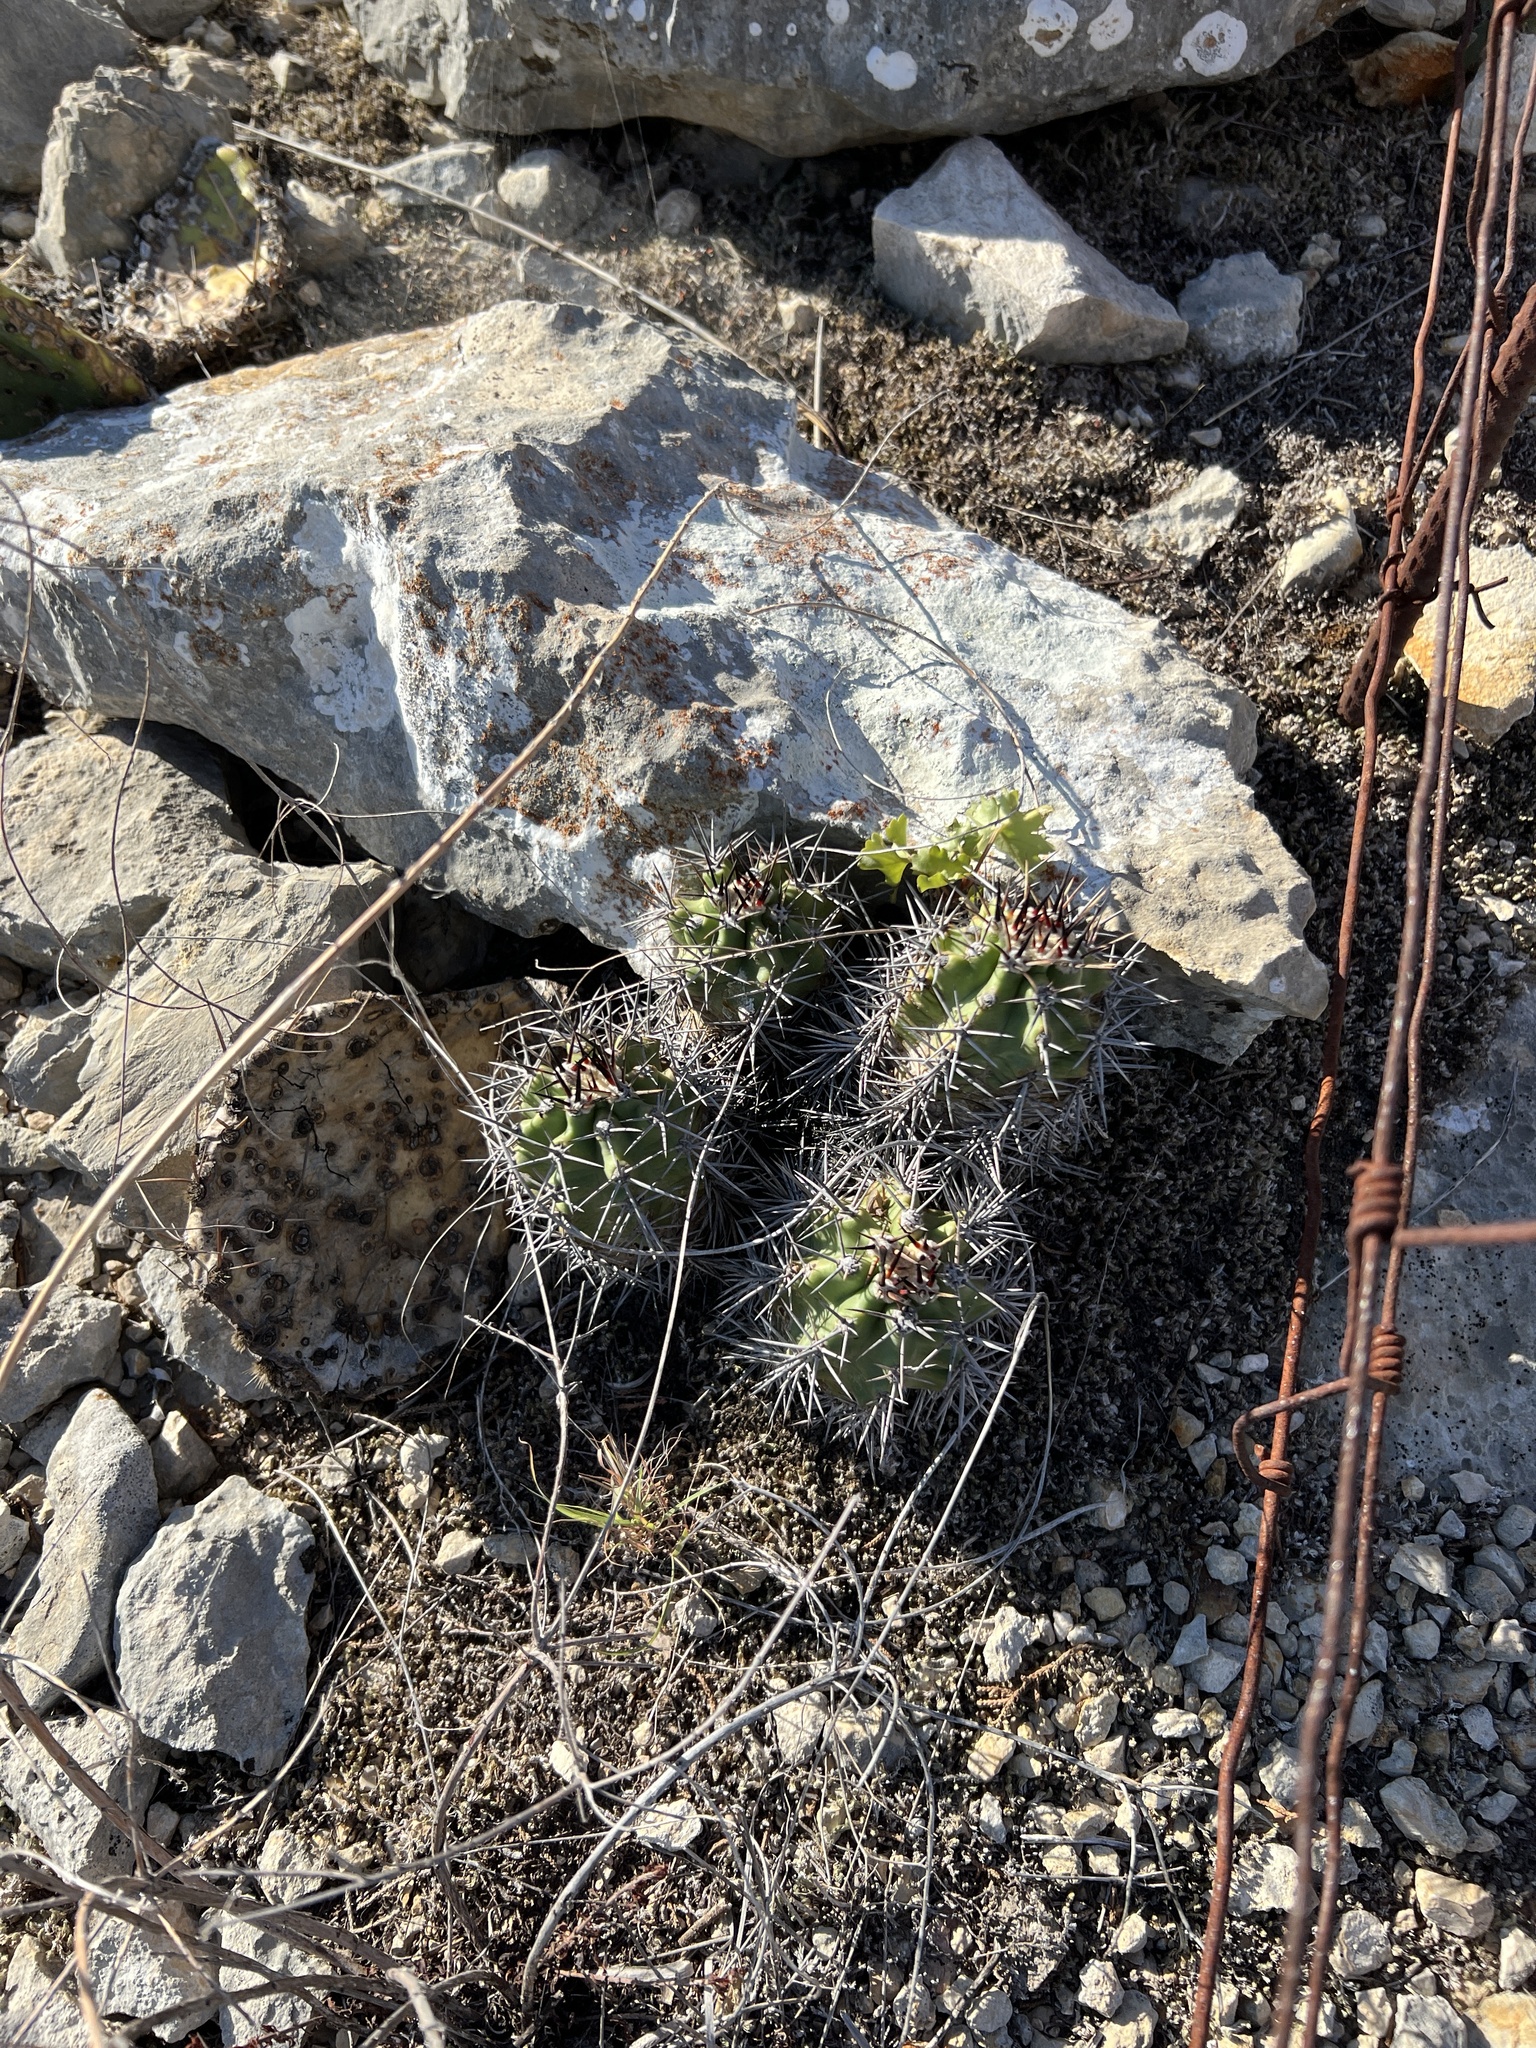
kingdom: Plantae
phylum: Tracheophyta
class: Magnoliopsida
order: Caryophyllales
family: Cactaceae
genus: Echinocereus
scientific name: Echinocereus coccineus
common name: Scarlet hedgehog cactus
